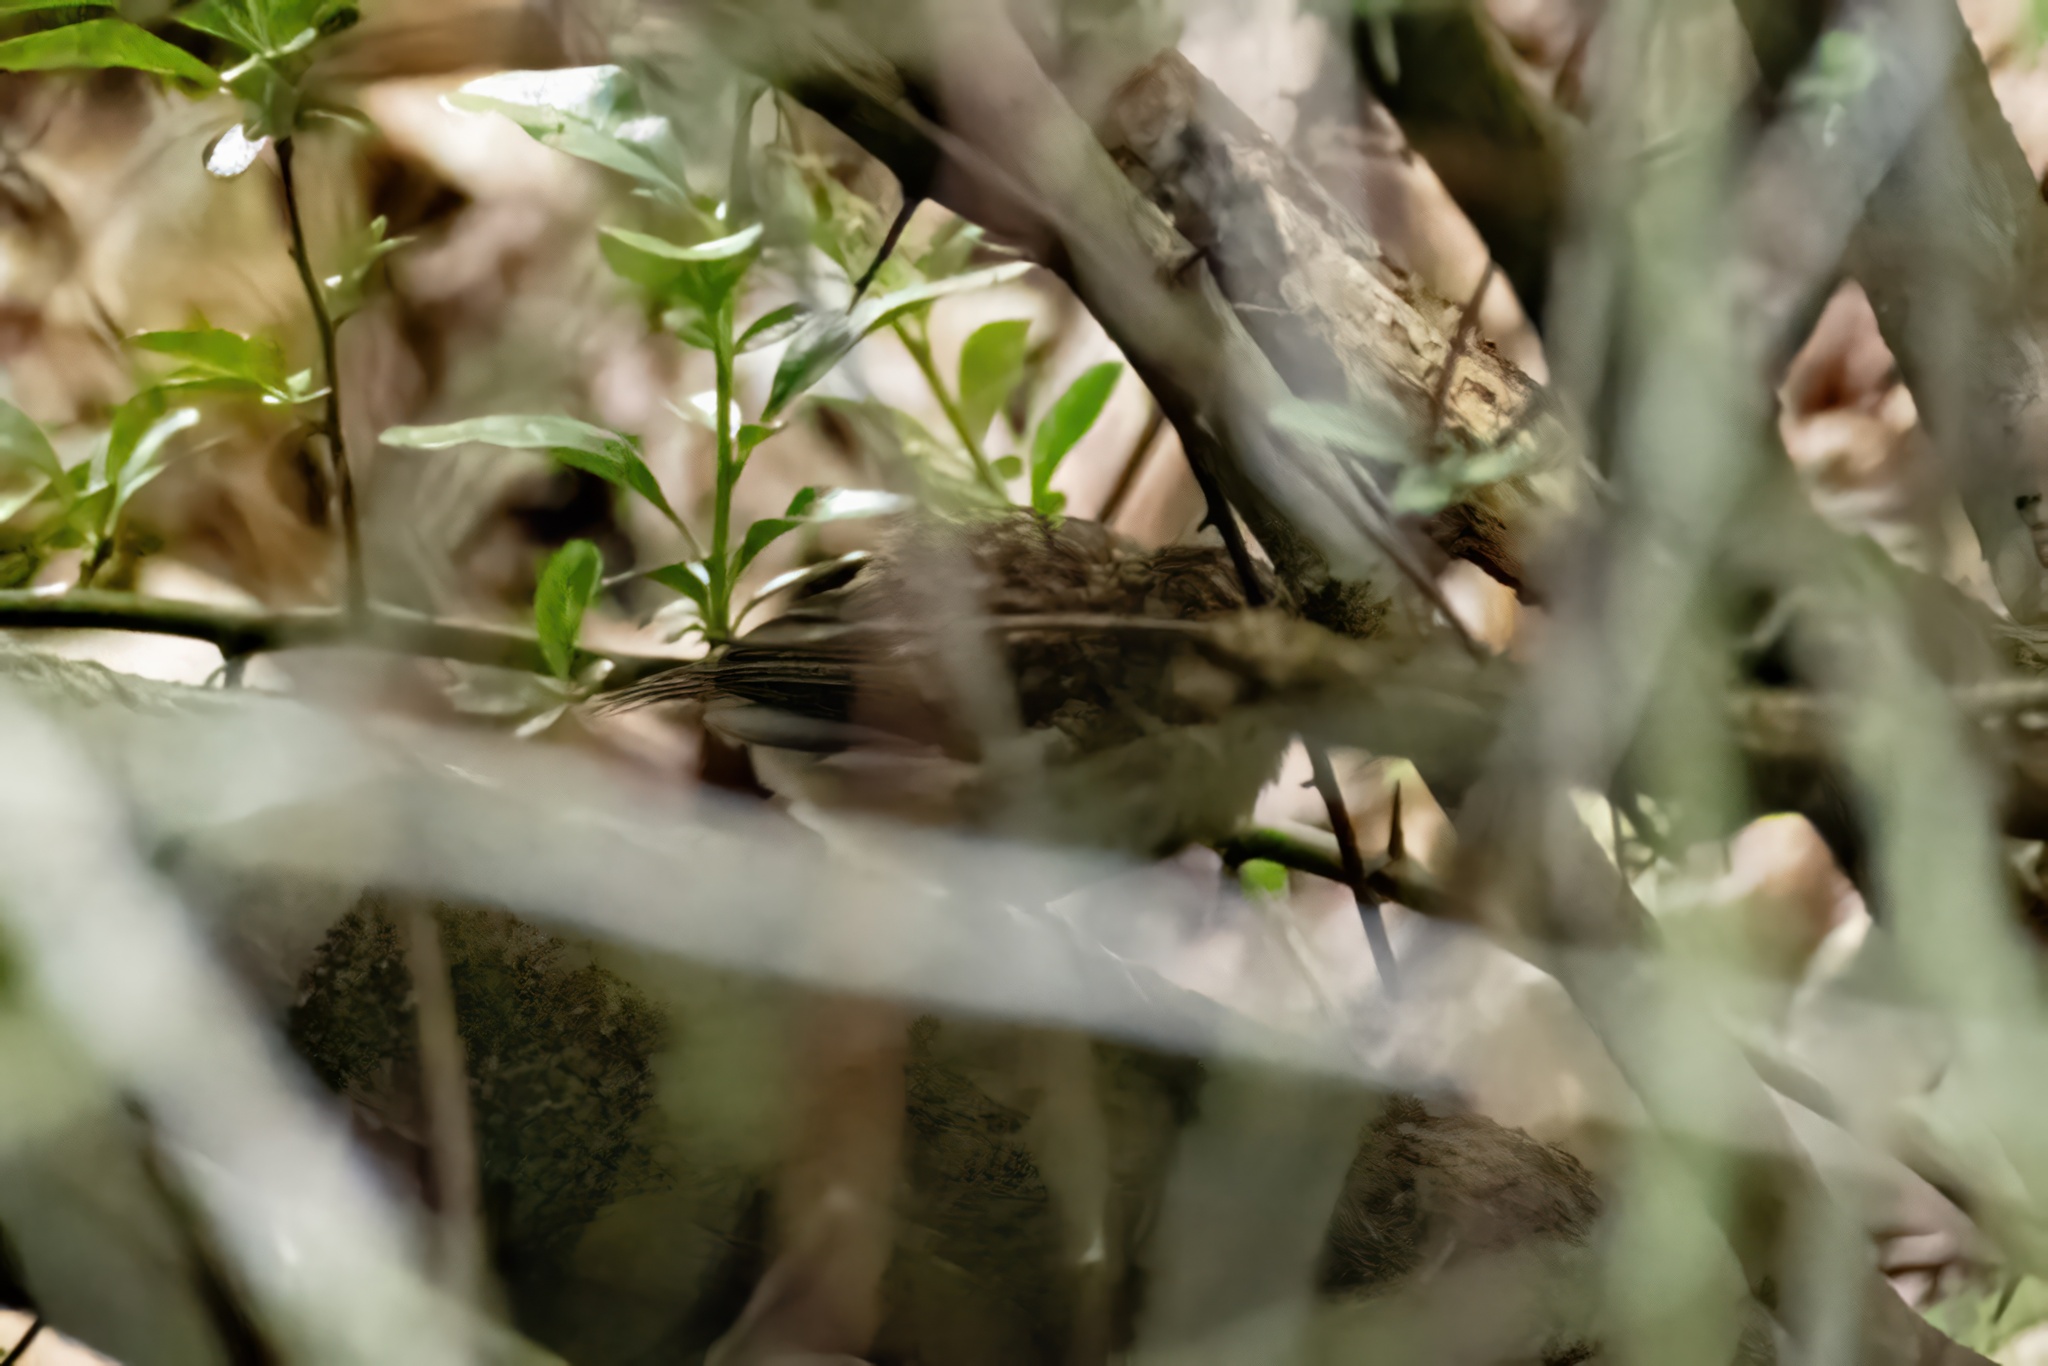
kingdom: Animalia
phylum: Chordata
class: Aves
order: Passeriformes
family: Troglodytidae
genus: Troglodytes
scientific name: Troglodytes troglodytes
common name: Eurasian wren
